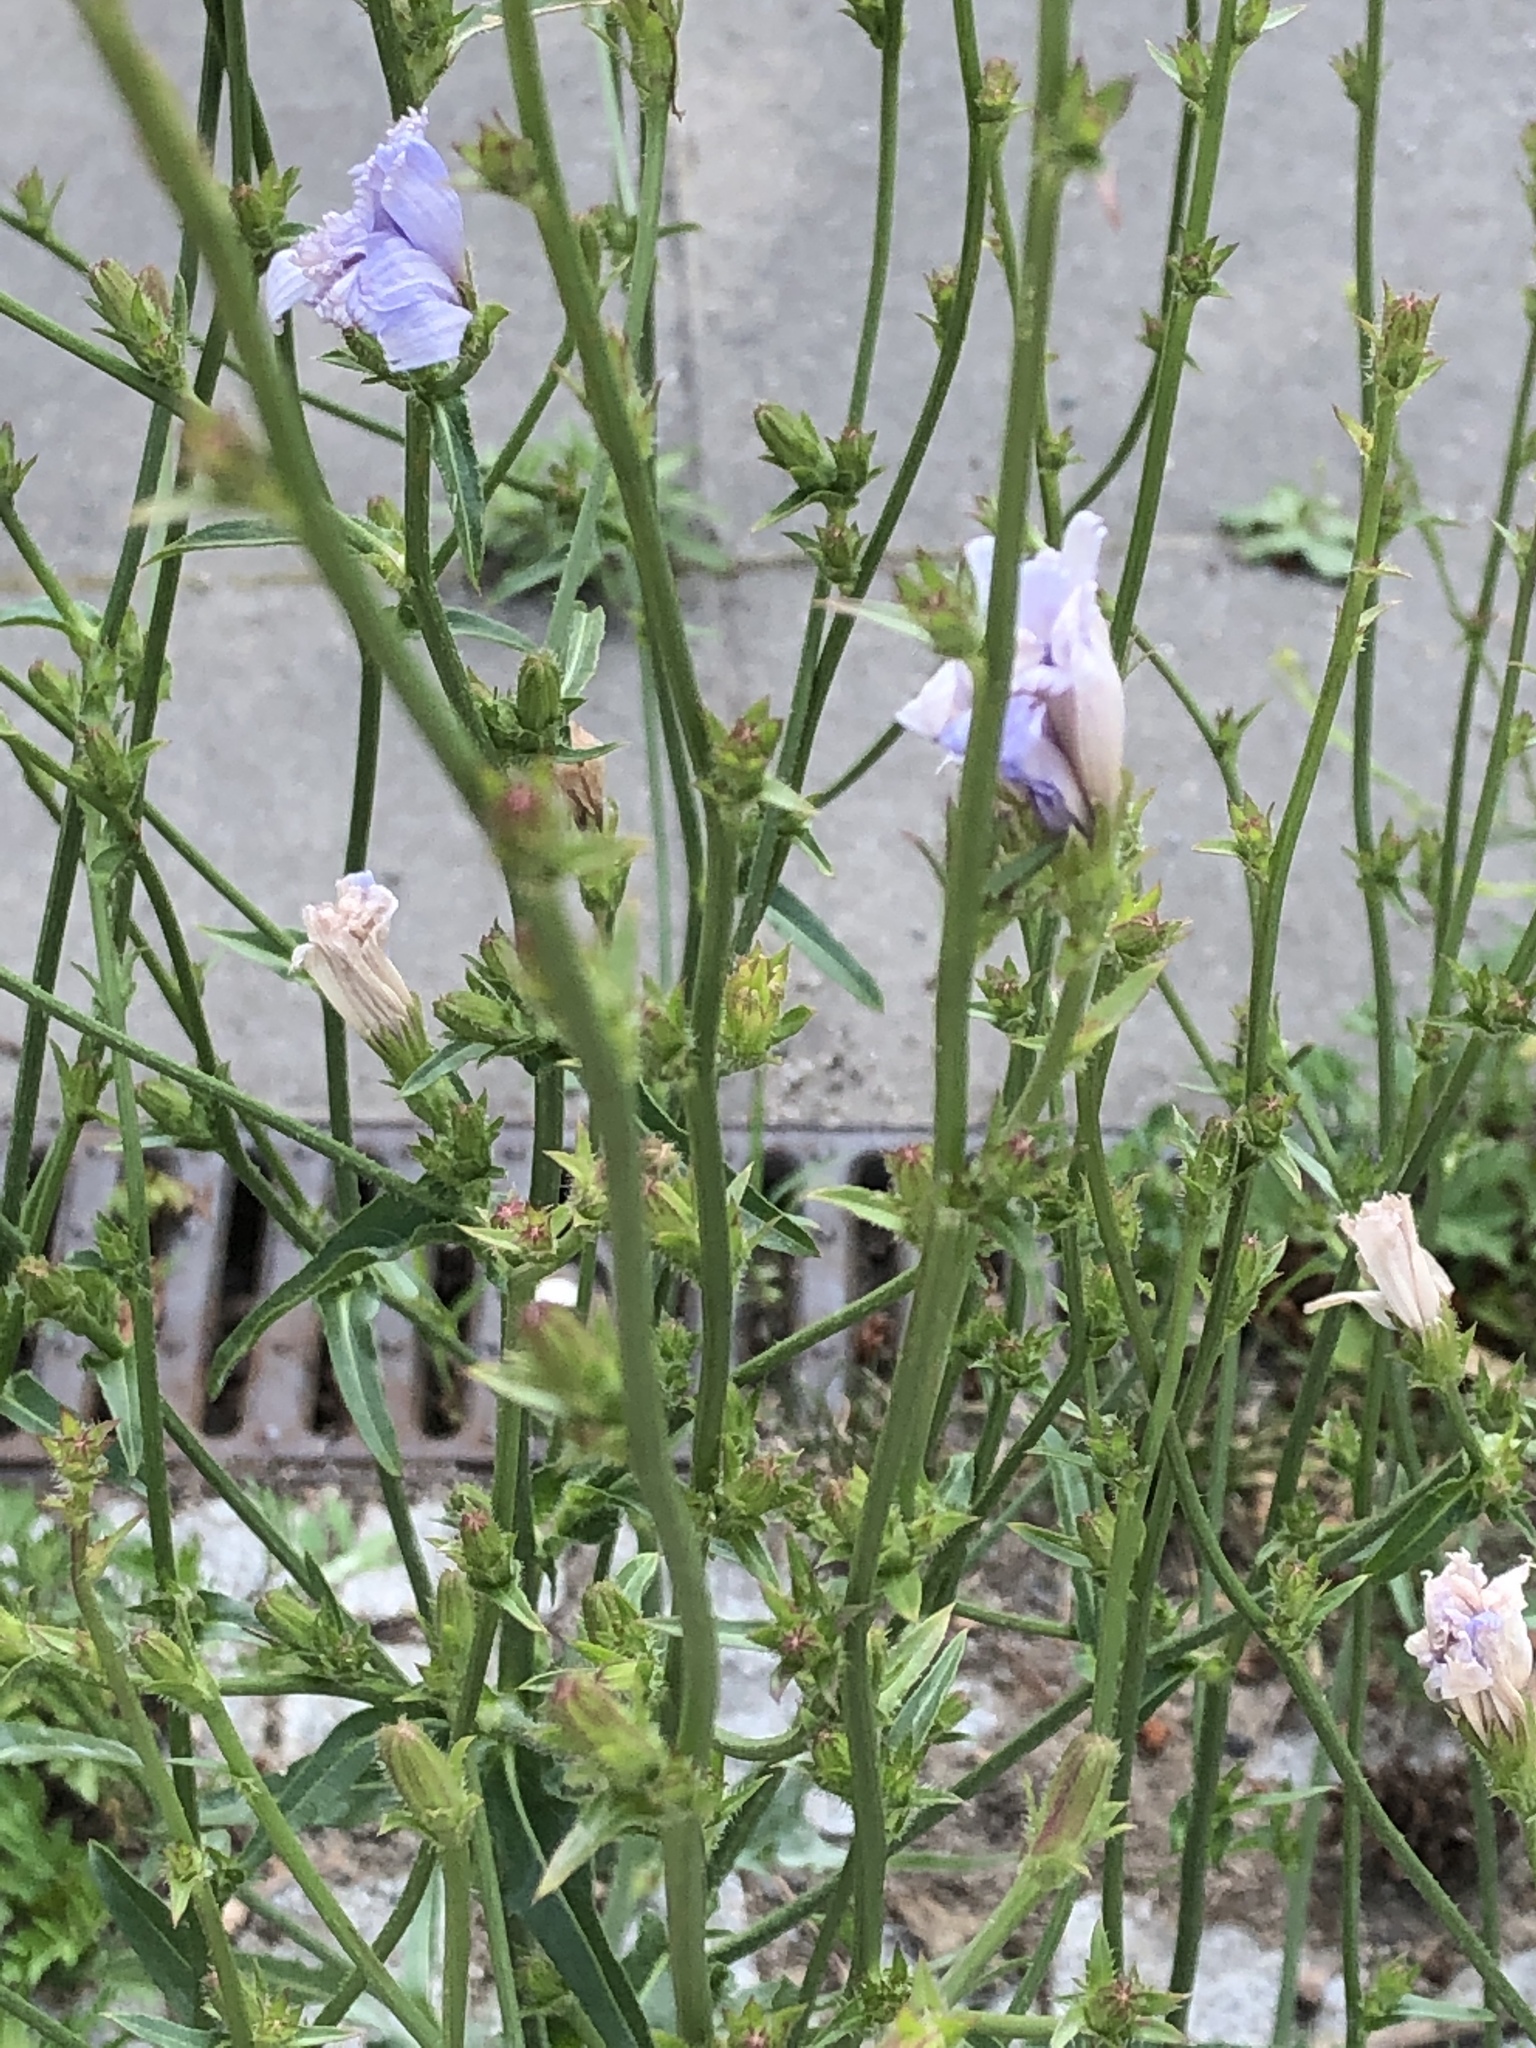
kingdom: Plantae
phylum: Tracheophyta
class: Magnoliopsida
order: Asterales
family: Asteraceae
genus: Cichorium
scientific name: Cichorium intybus
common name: Chicory
